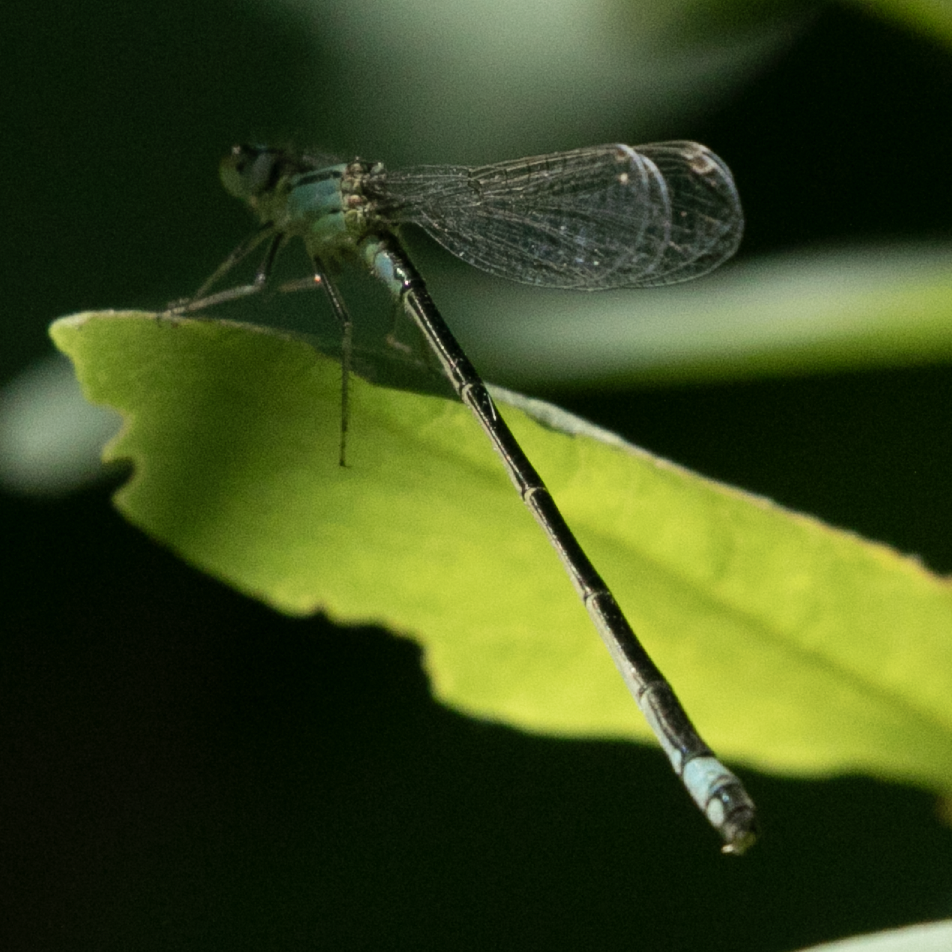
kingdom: Animalia
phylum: Arthropoda
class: Insecta
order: Odonata
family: Coenagrionidae
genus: Ischnura
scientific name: Ischnura elegans
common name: Blue-tailed damselfly
